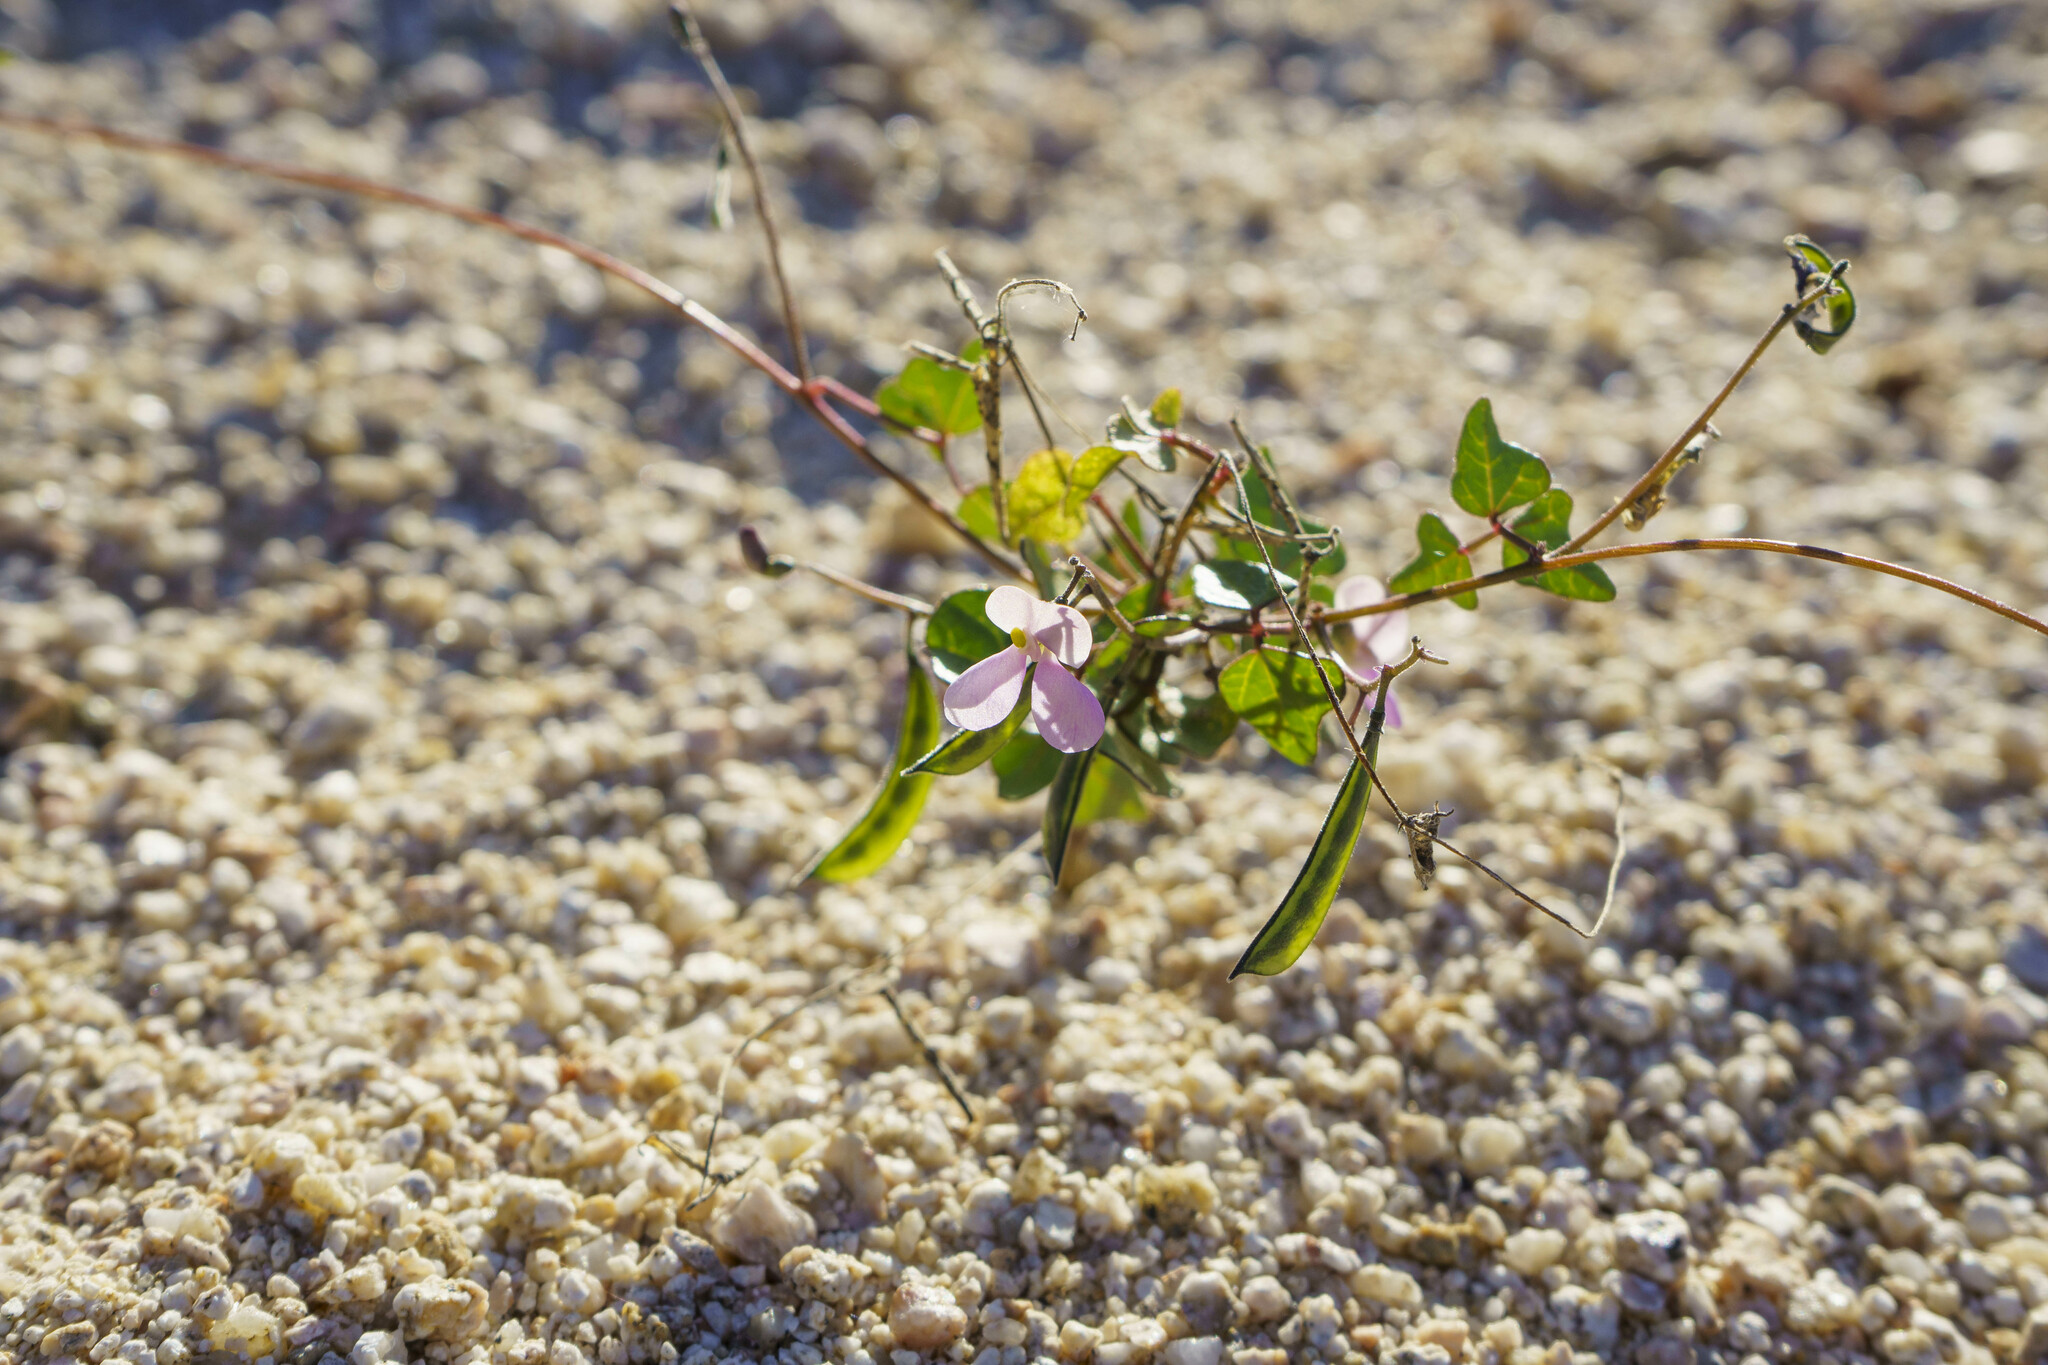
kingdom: Plantae
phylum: Tracheophyta
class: Magnoliopsida
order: Fabales
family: Fabaceae
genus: Phaseolus
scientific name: Phaseolus filiformis
